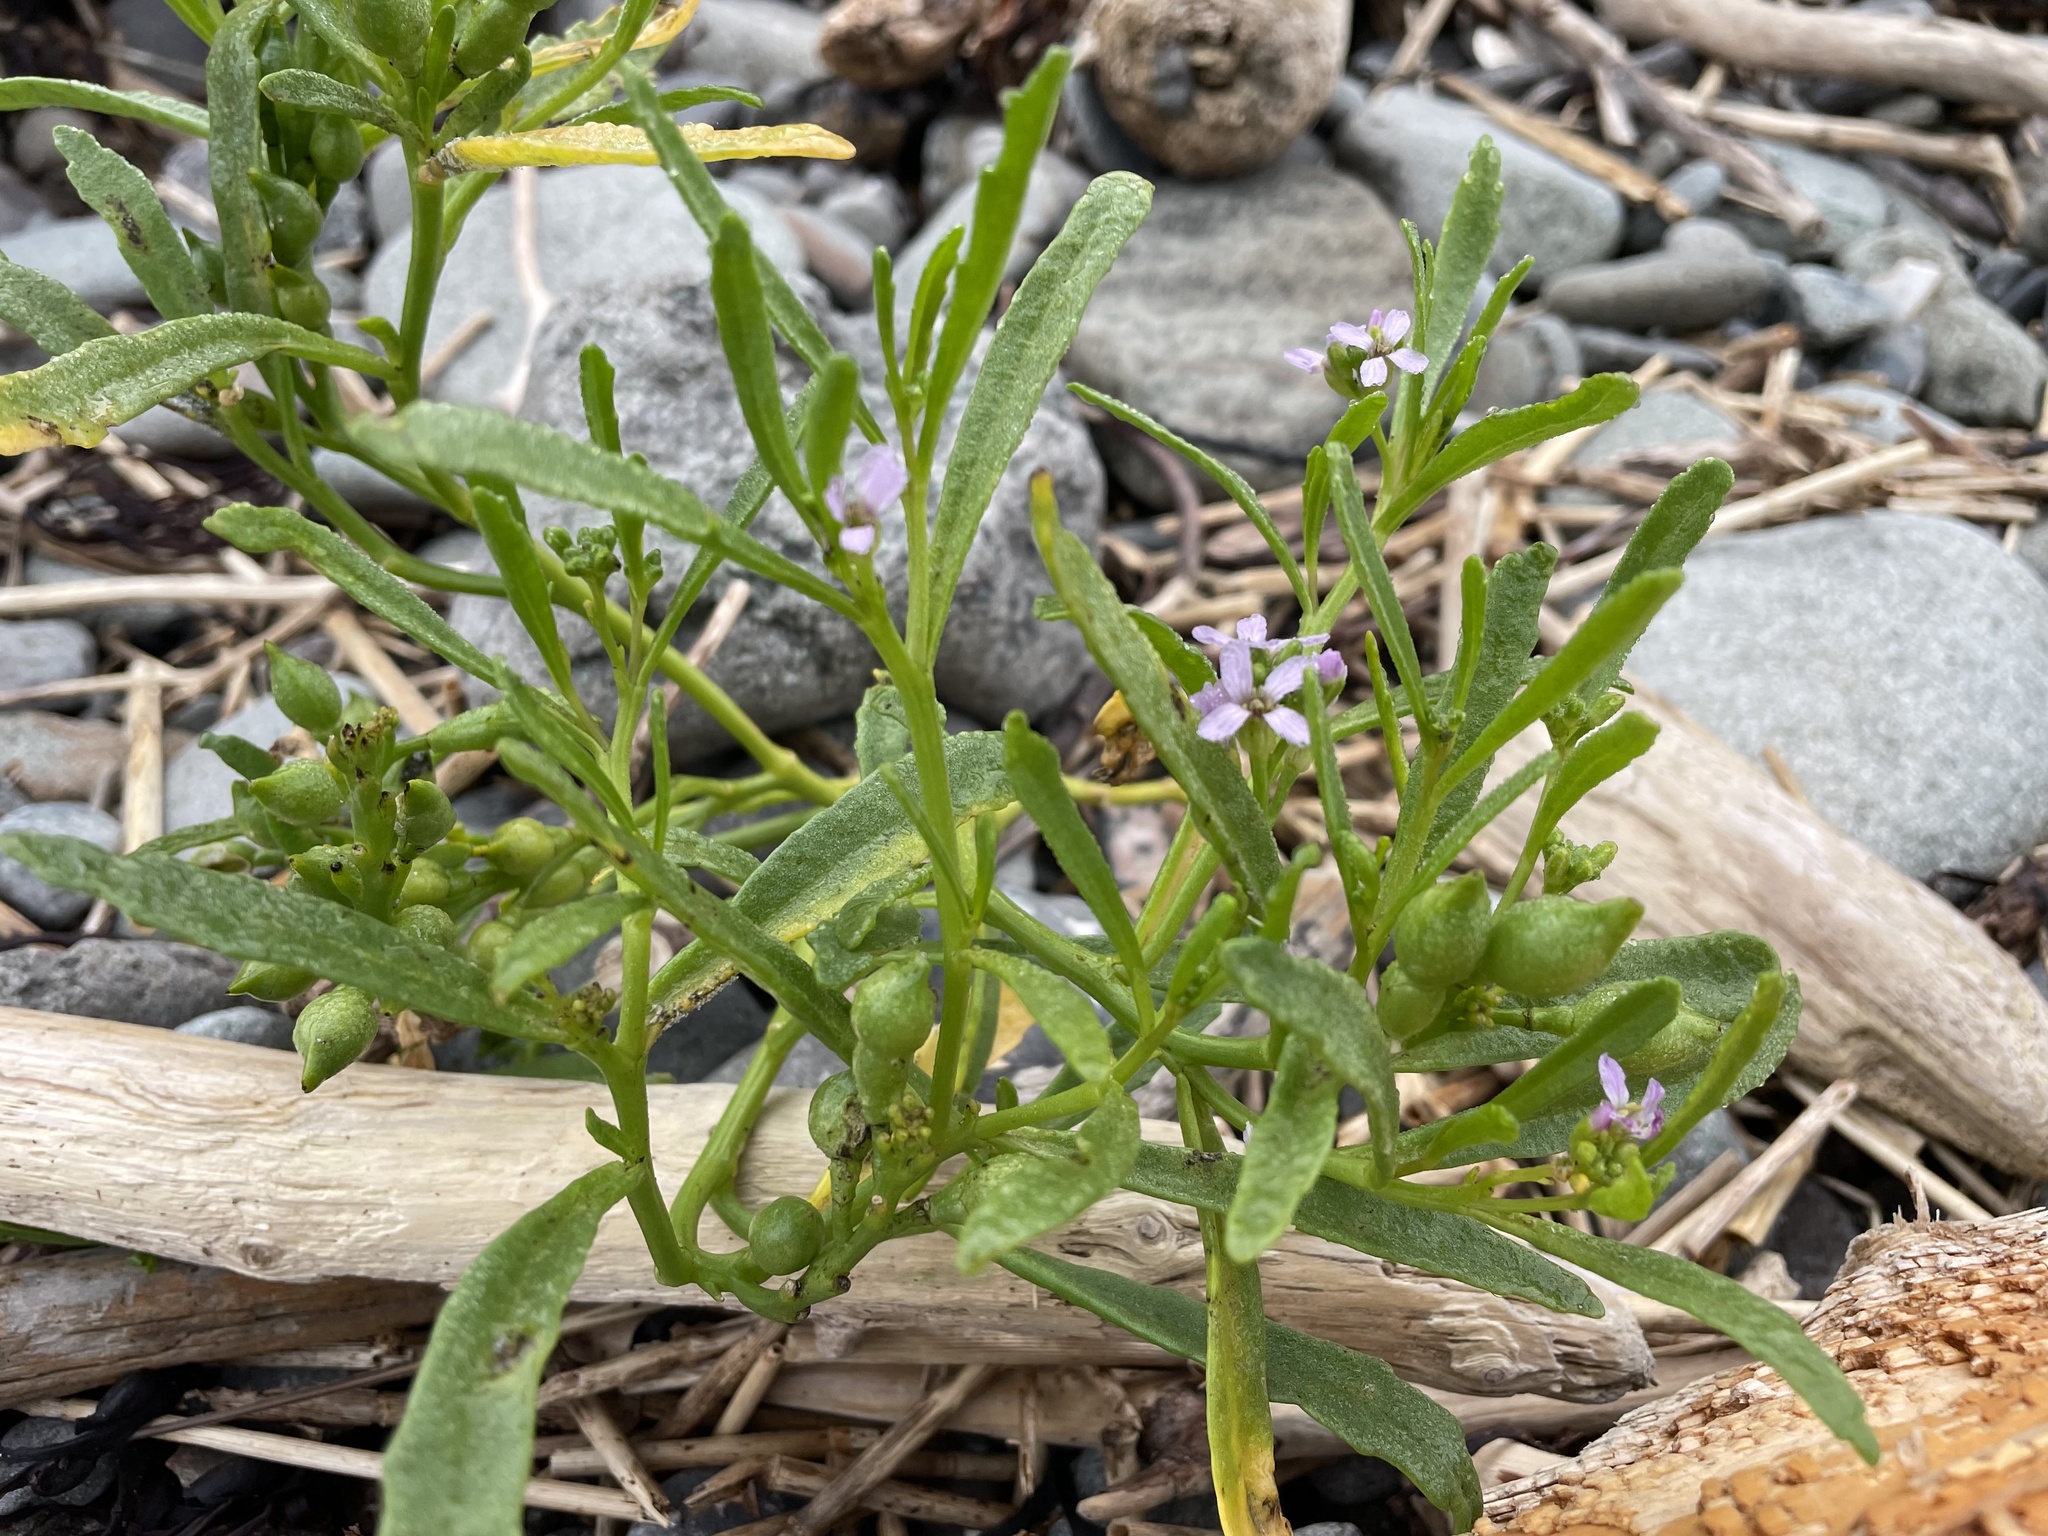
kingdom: Plantae
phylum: Tracheophyta
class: Magnoliopsida
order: Brassicales
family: Brassicaceae
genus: Cakile
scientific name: Cakile edentula
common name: American sea rocket
